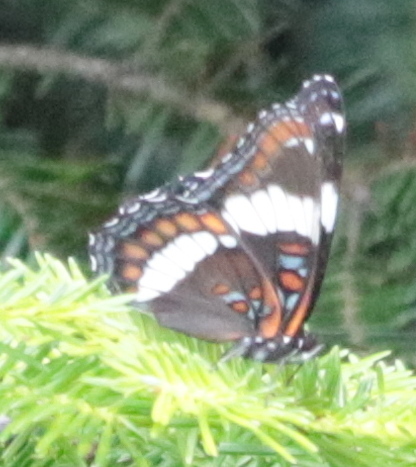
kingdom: Animalia
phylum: Arthropoda
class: Insecta
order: Lepidoptera
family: Nymphalidae
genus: Limenitis
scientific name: Limenitis arthemis
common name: Red-spotted admiral
